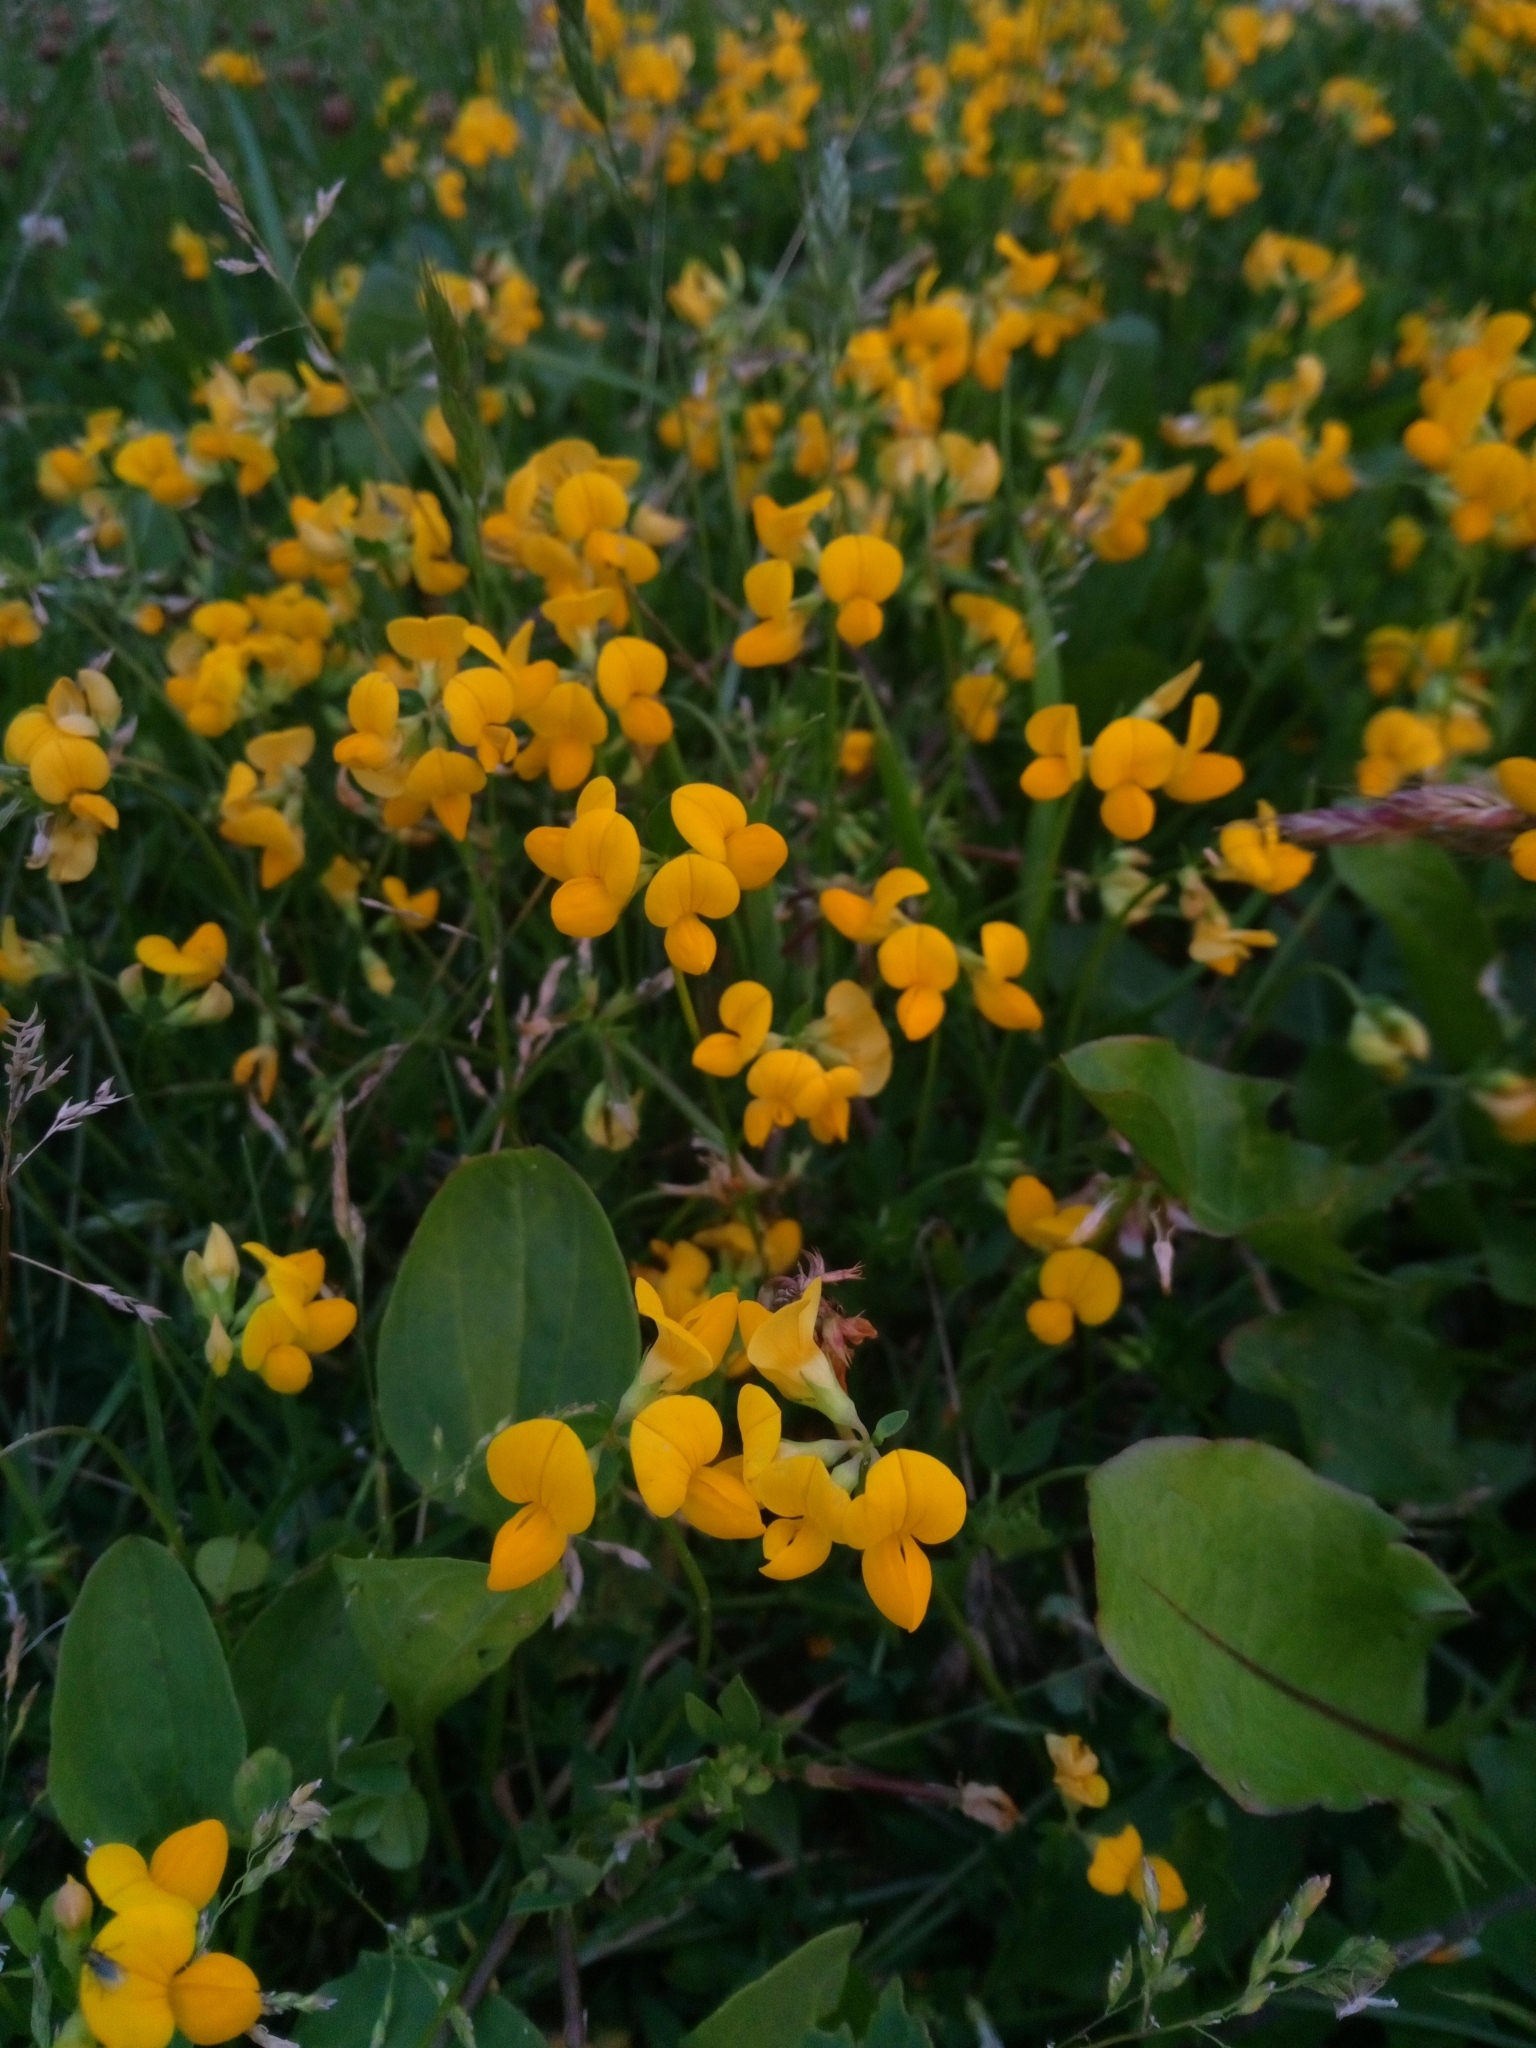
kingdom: Plantae
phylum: Tracheophyta
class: Magnoliopsida
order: Fabales
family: Fabaceae
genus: Lotus
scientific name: Lotus corniculatus
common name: Common bird's-foot-trefoil
